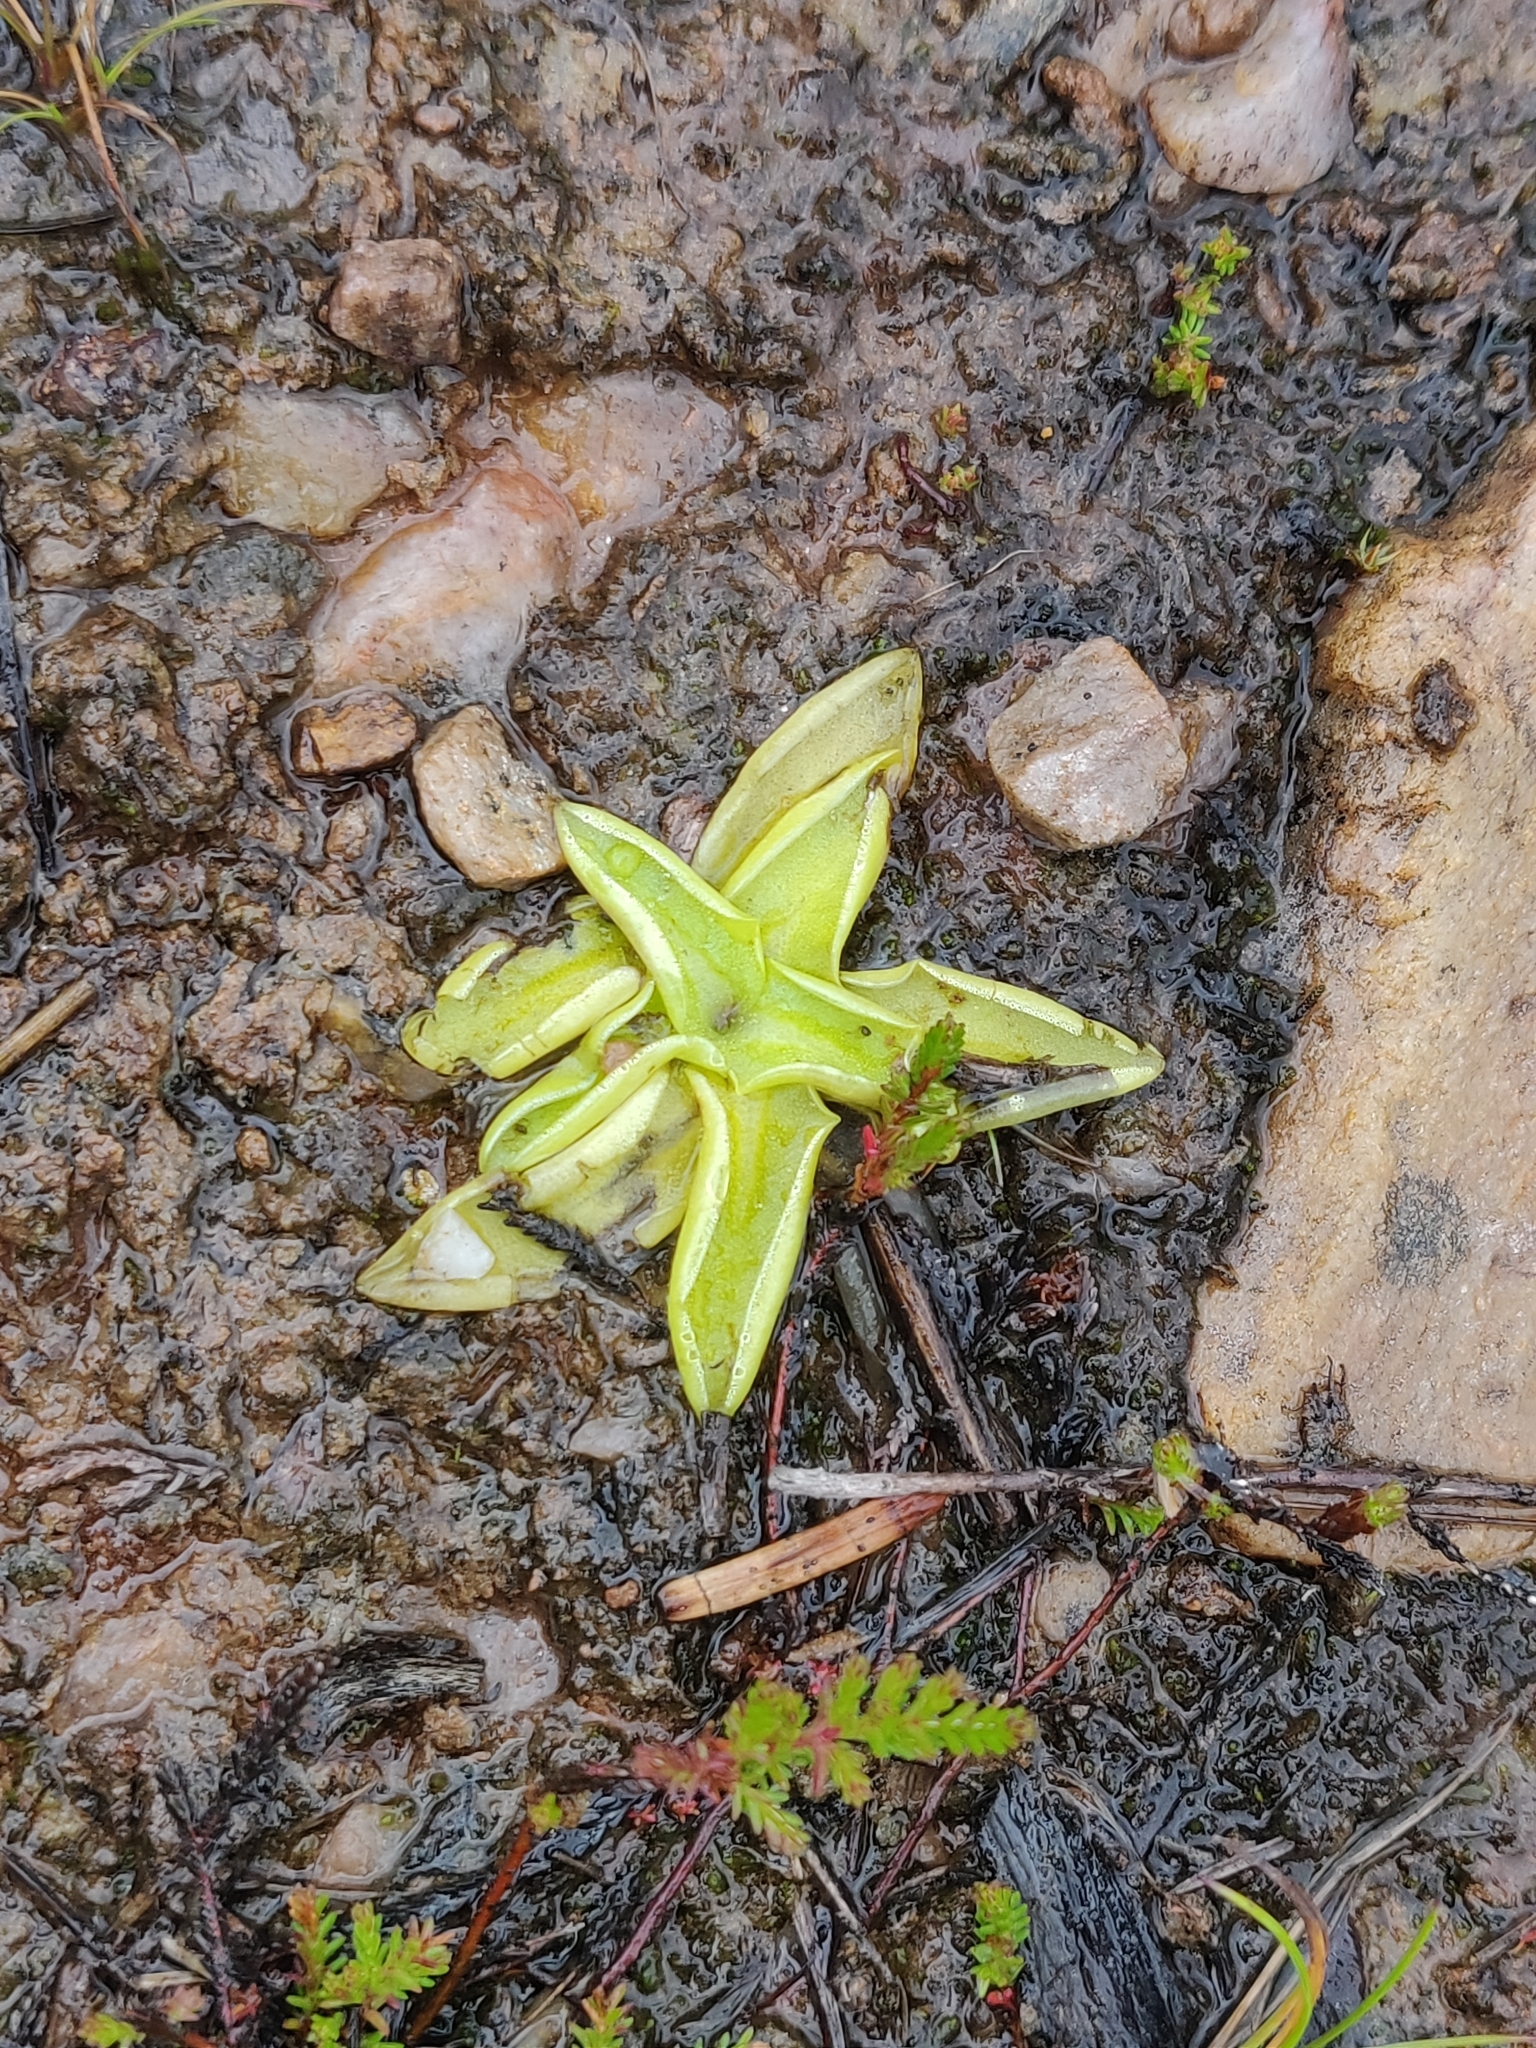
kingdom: Plantae
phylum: Tracheophyta
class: Magnoliopsida
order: Lamiales
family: Lentibulariaceae
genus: Pinguicula
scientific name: Pinguicula vulgaris
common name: Common butterwort
